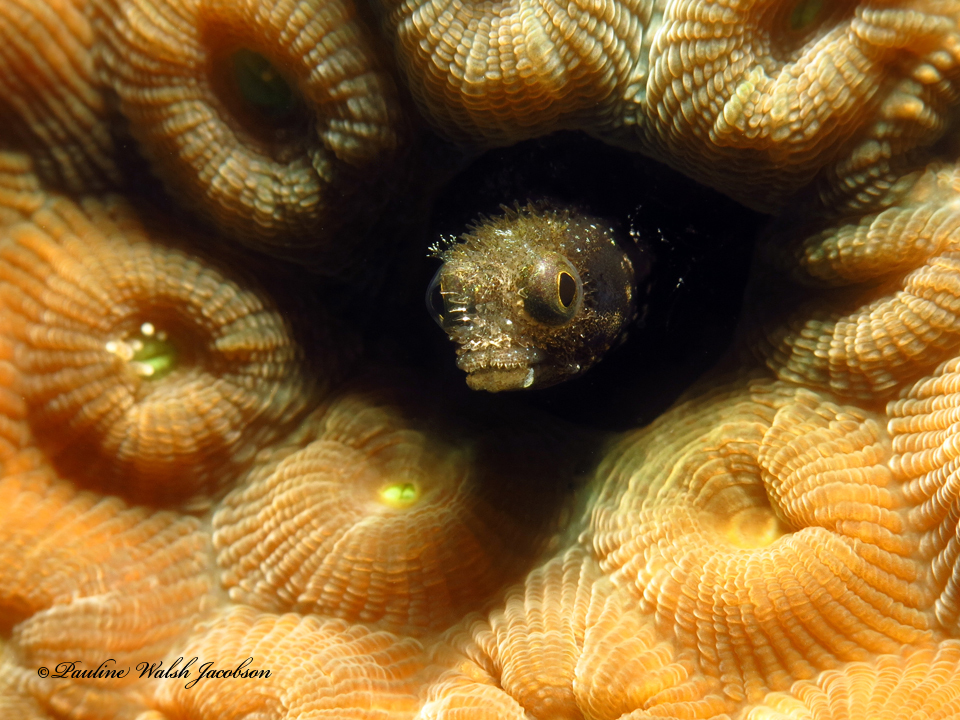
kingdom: Animalia
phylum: Chordata
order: Perciformes
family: Chaenopsidae
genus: Acanthemblemaria
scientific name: Acanthemblemaria spinosa
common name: Spinyhead blenny
